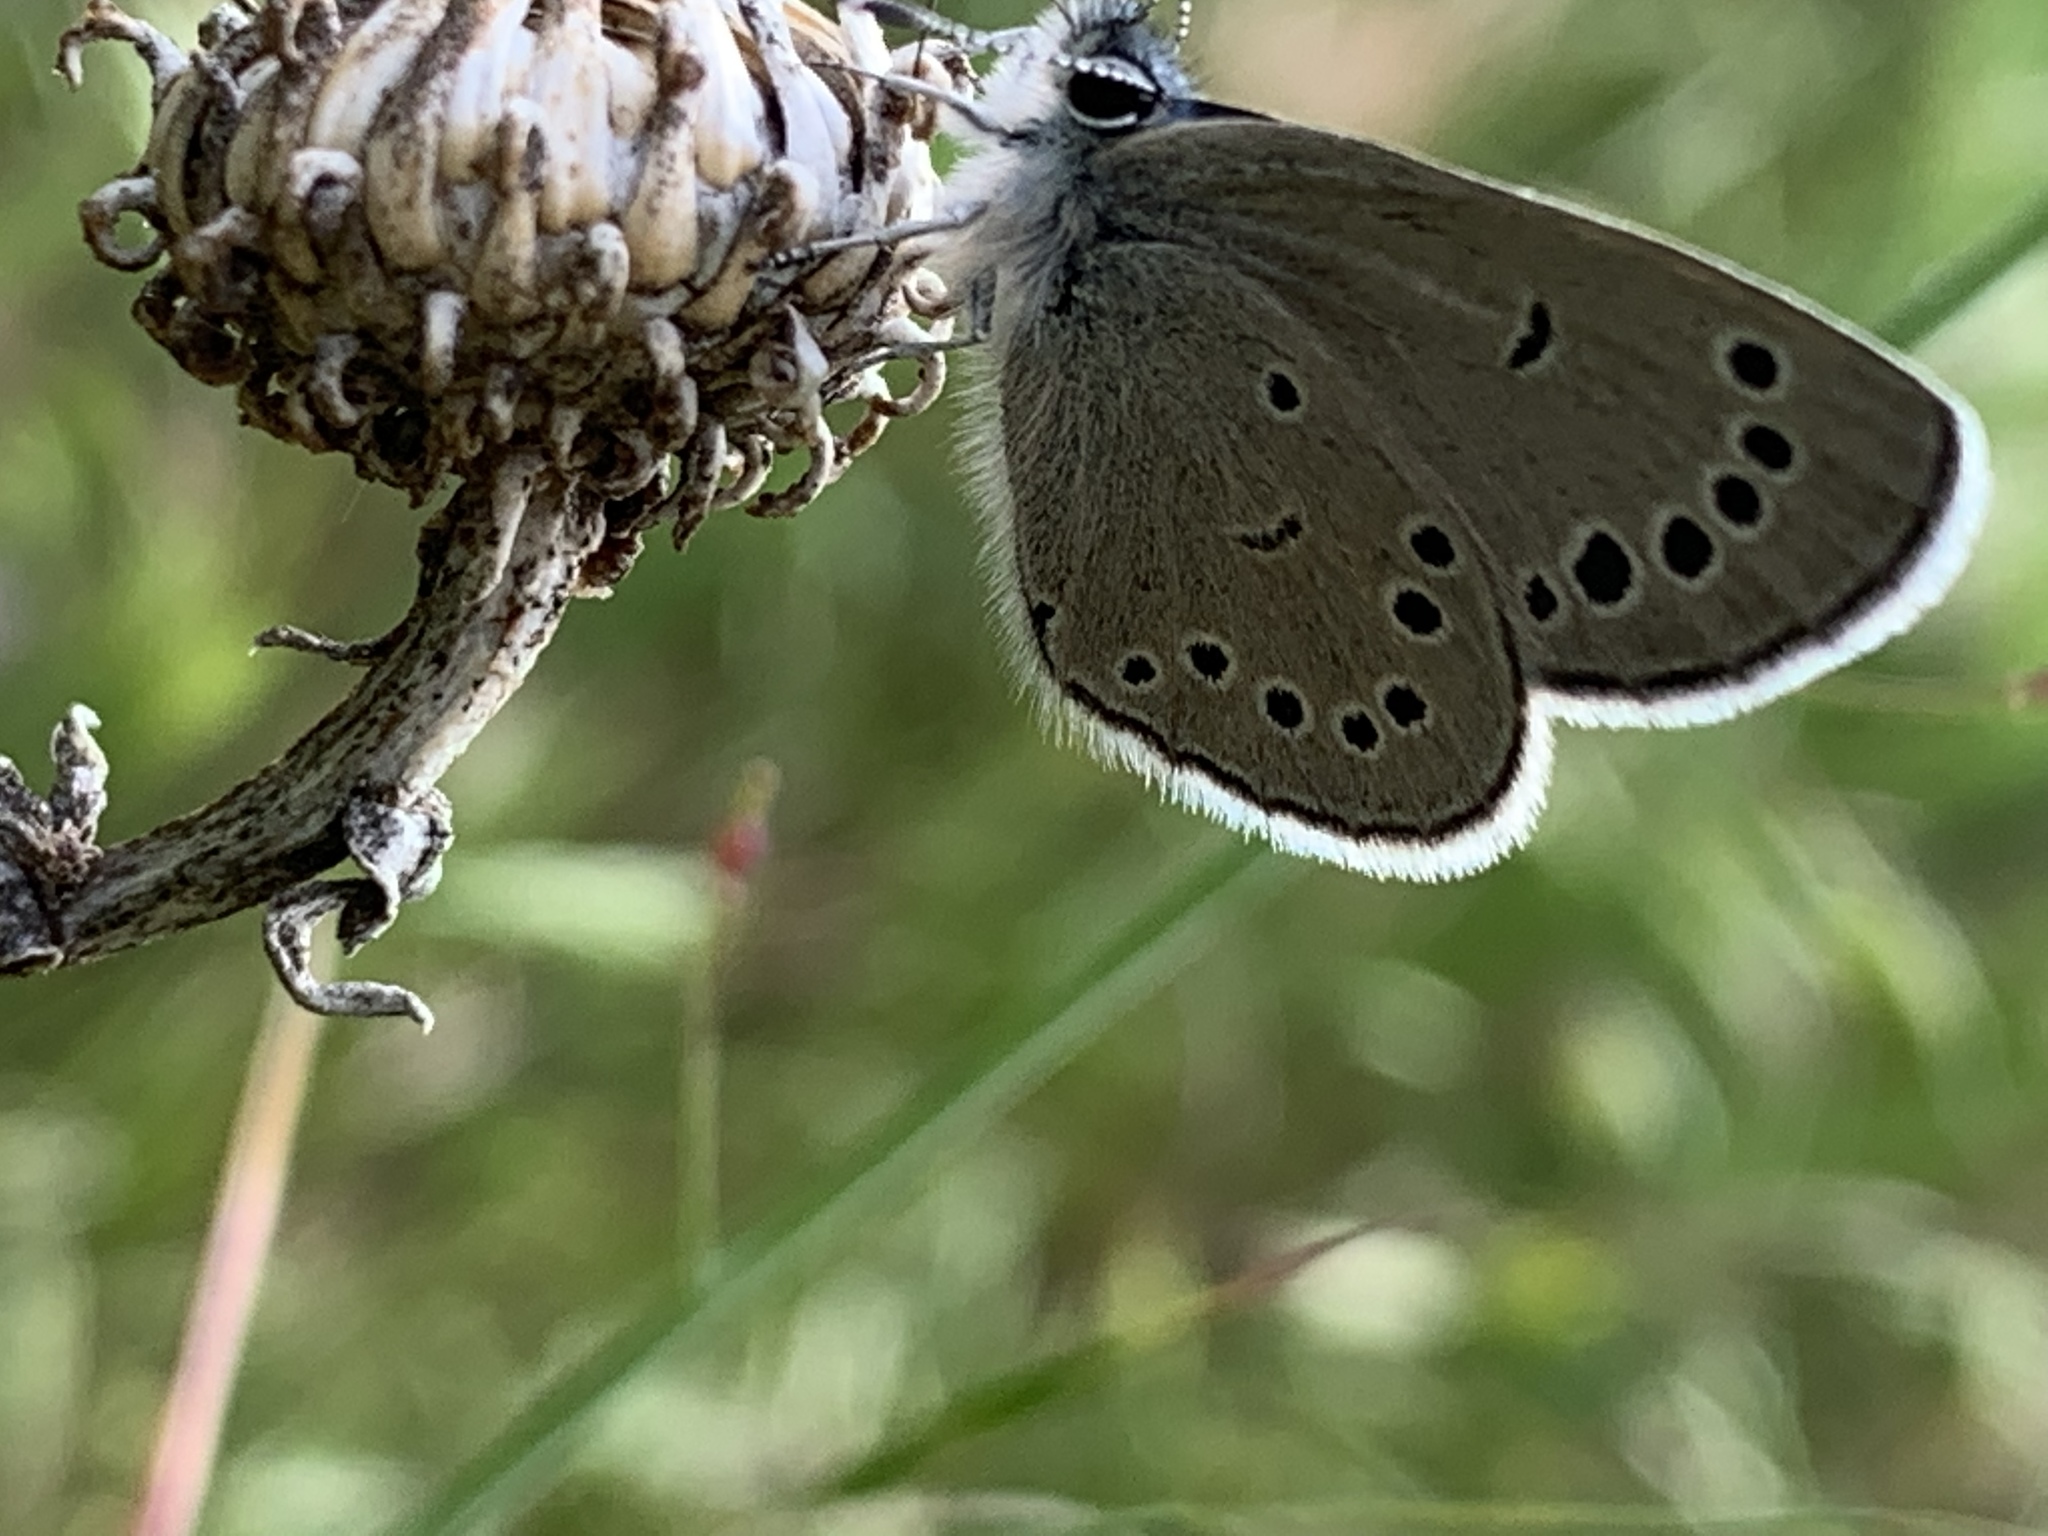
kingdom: Animalia
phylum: Arthropoda
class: Insecta
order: Lepidoptera
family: Lycaenidae
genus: Glaucopsyche
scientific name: Glaucopsyche lygdamus
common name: Silvery blue
